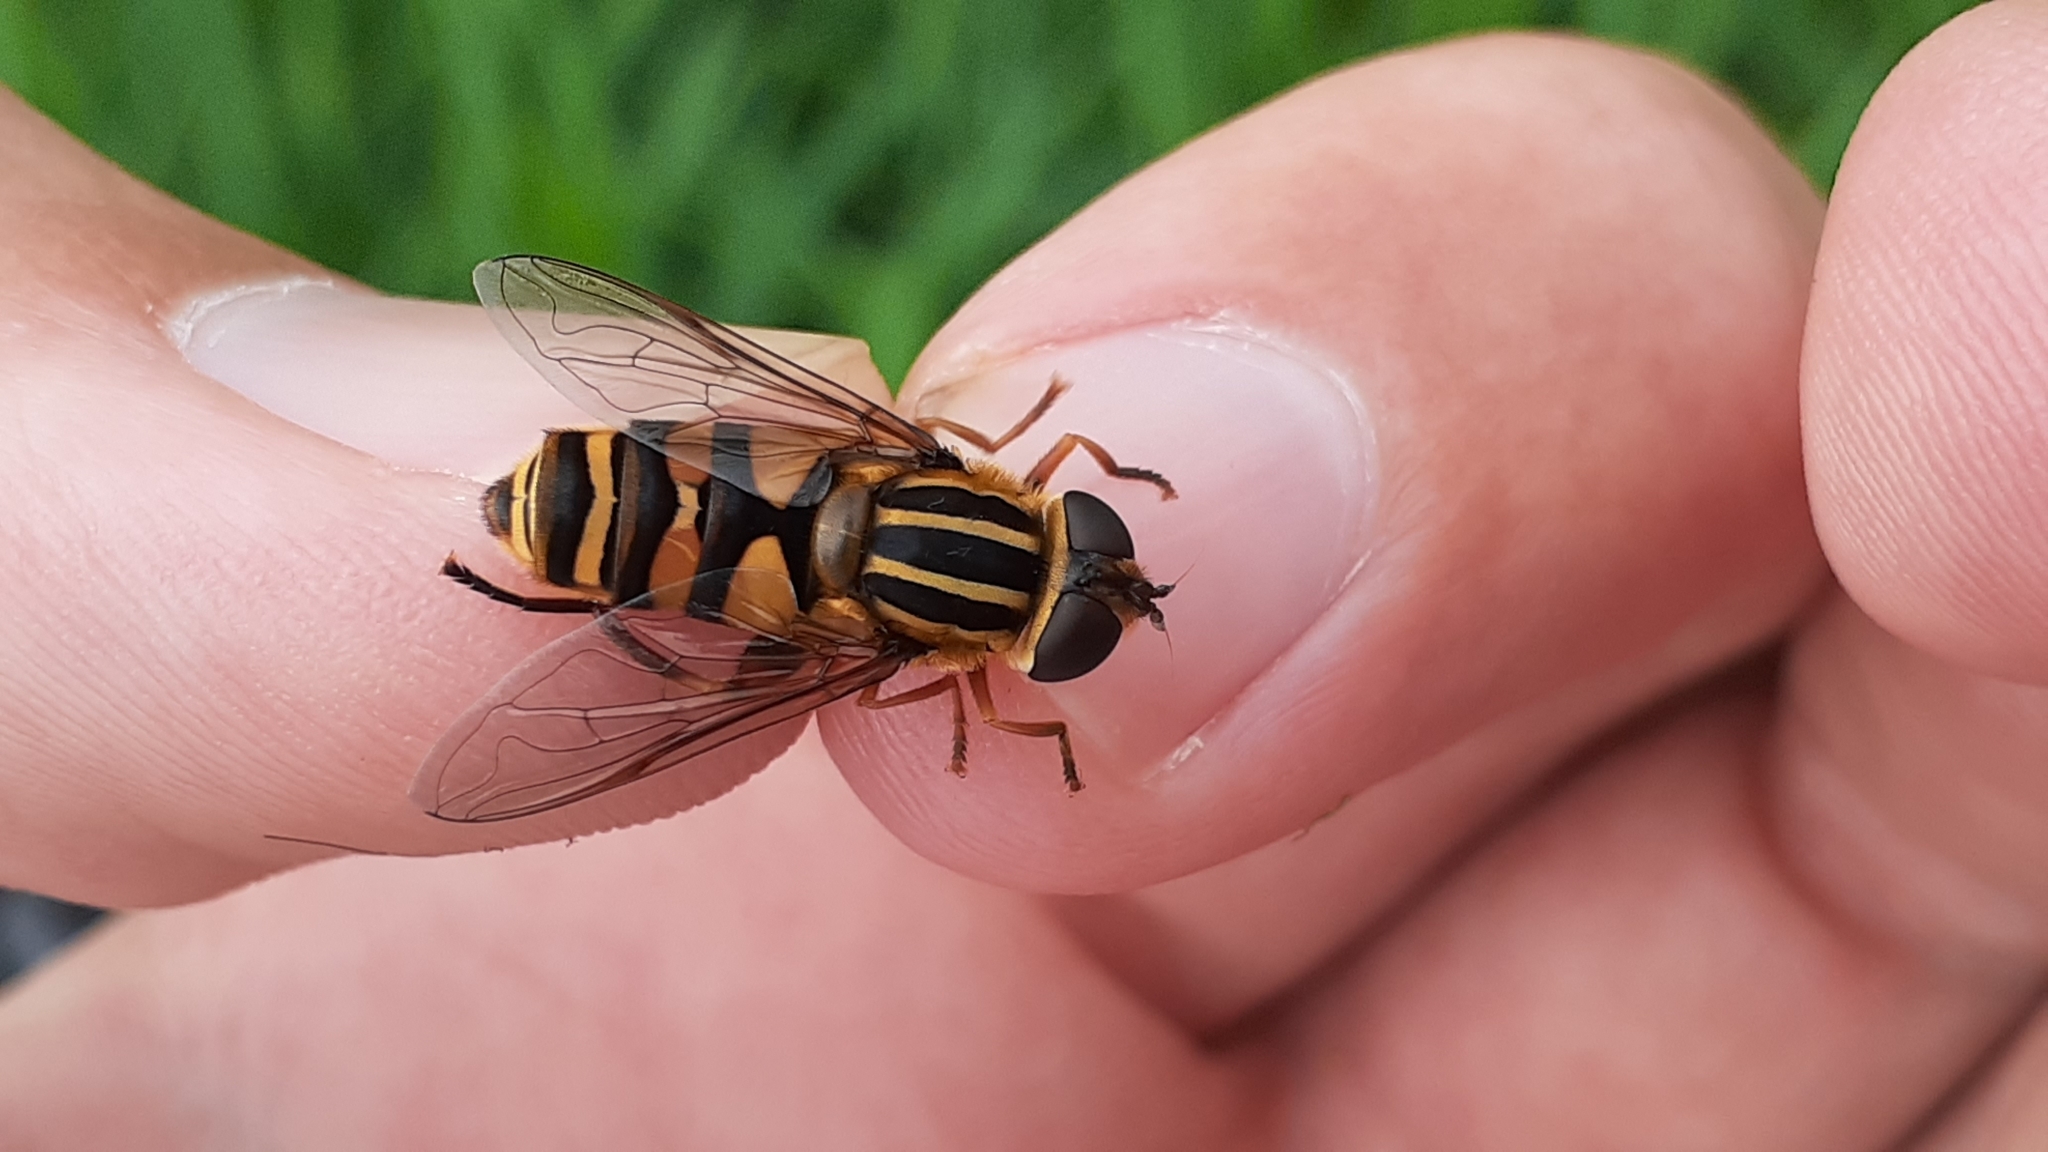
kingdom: Animalia
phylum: Arthropoda
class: Insecta
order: Diptera
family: Syrphidae
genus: Helophilus
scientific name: Helophilus fasciatus
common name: Narrow-headed marsh fly
